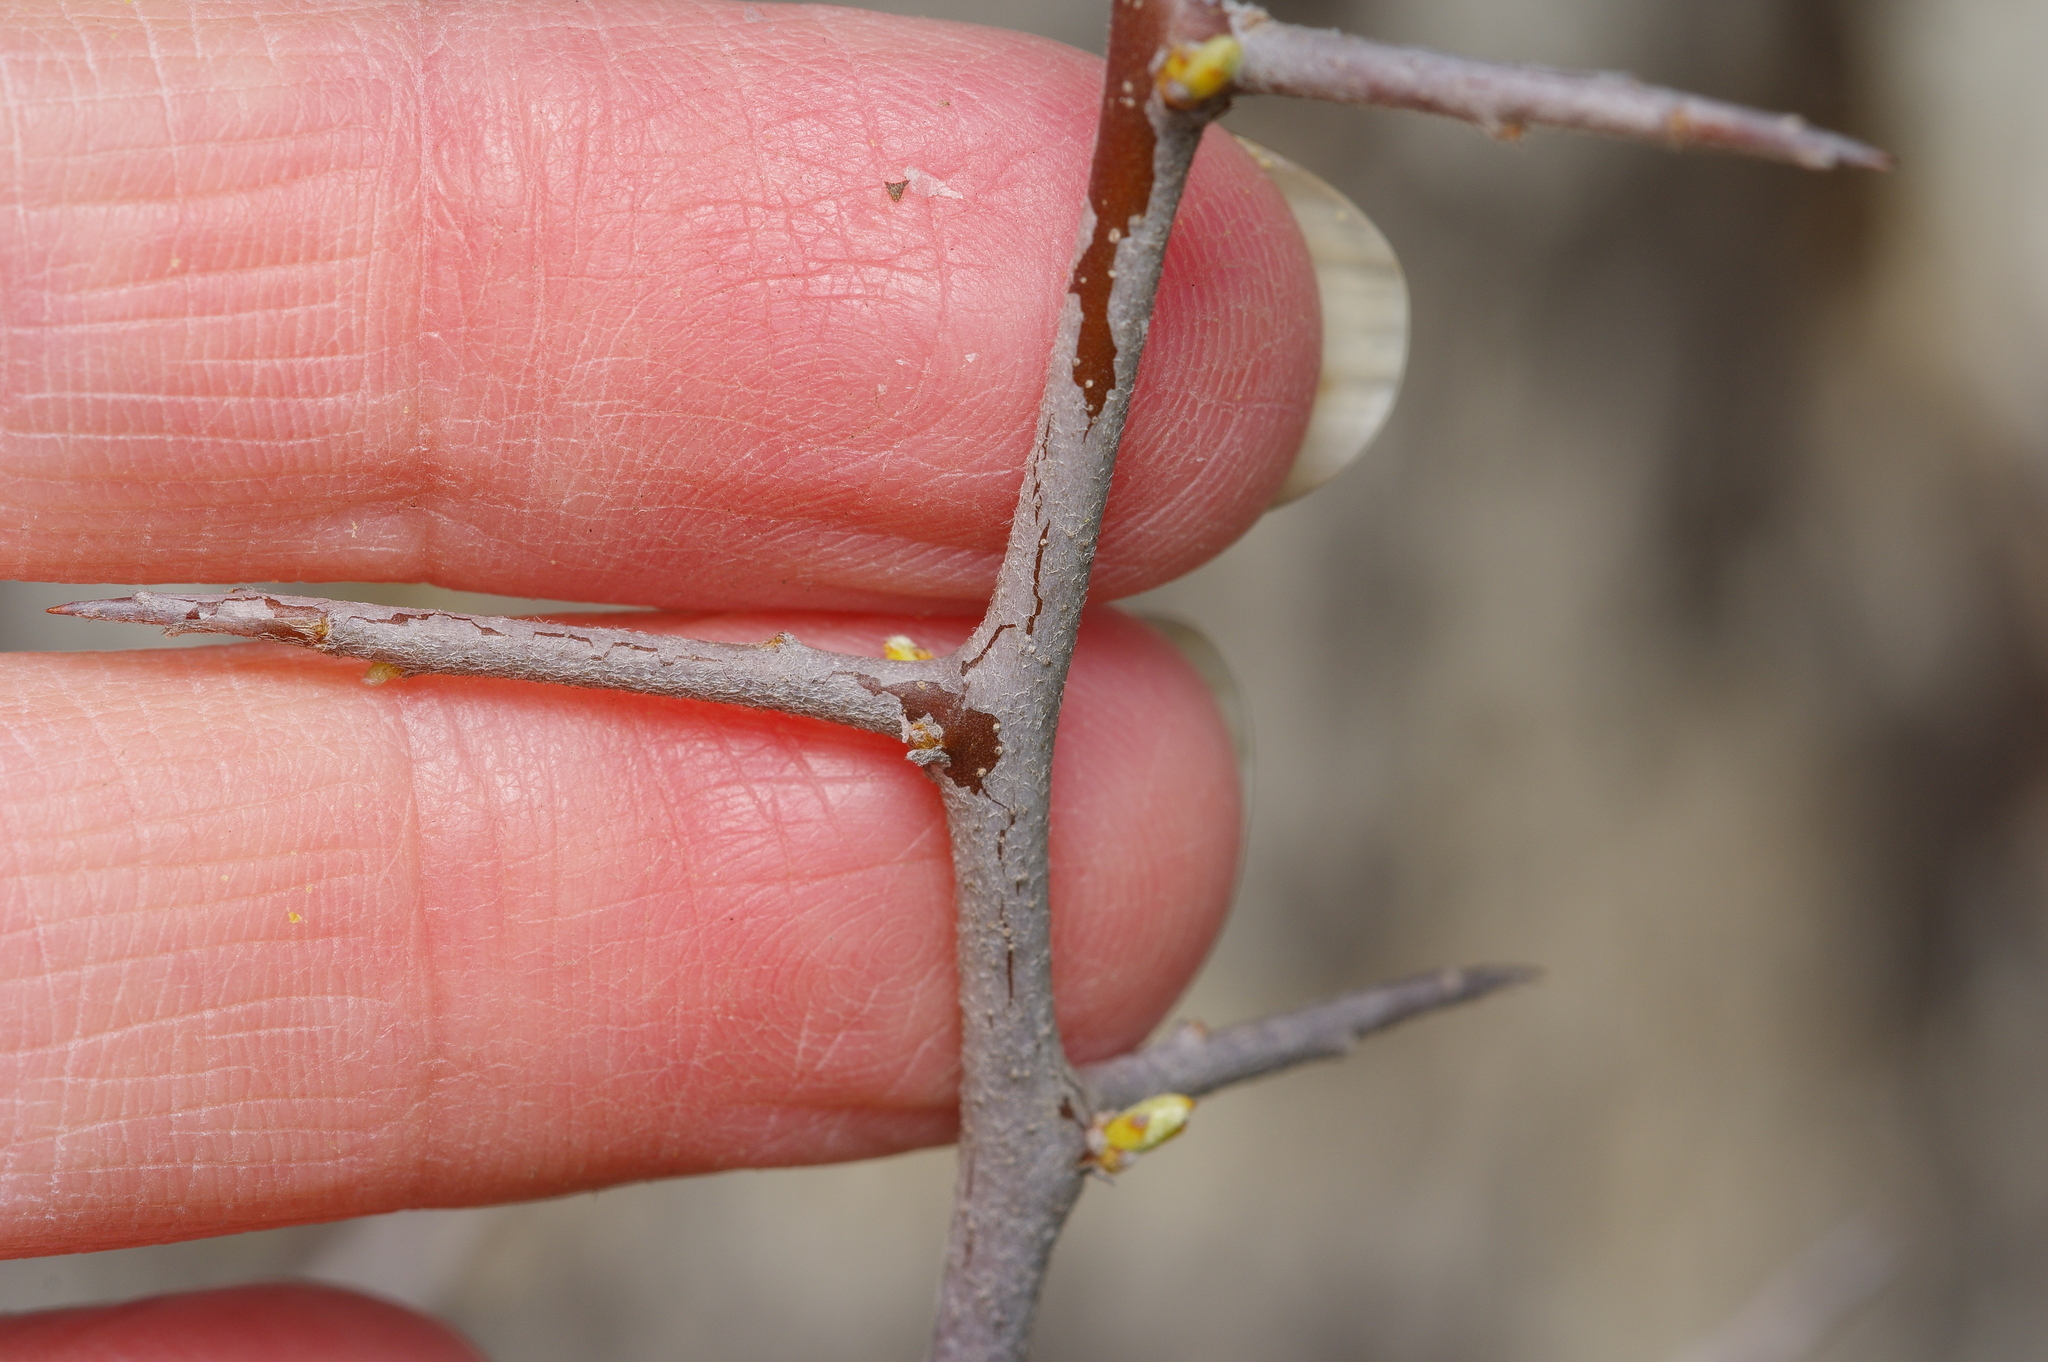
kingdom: Plantae
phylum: Tracheophyta
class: Magnoliopsida
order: Ericales
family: Sapotaceae
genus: Sideroxylon
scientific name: Sideroxylon lanuginosum
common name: Chittamwood
